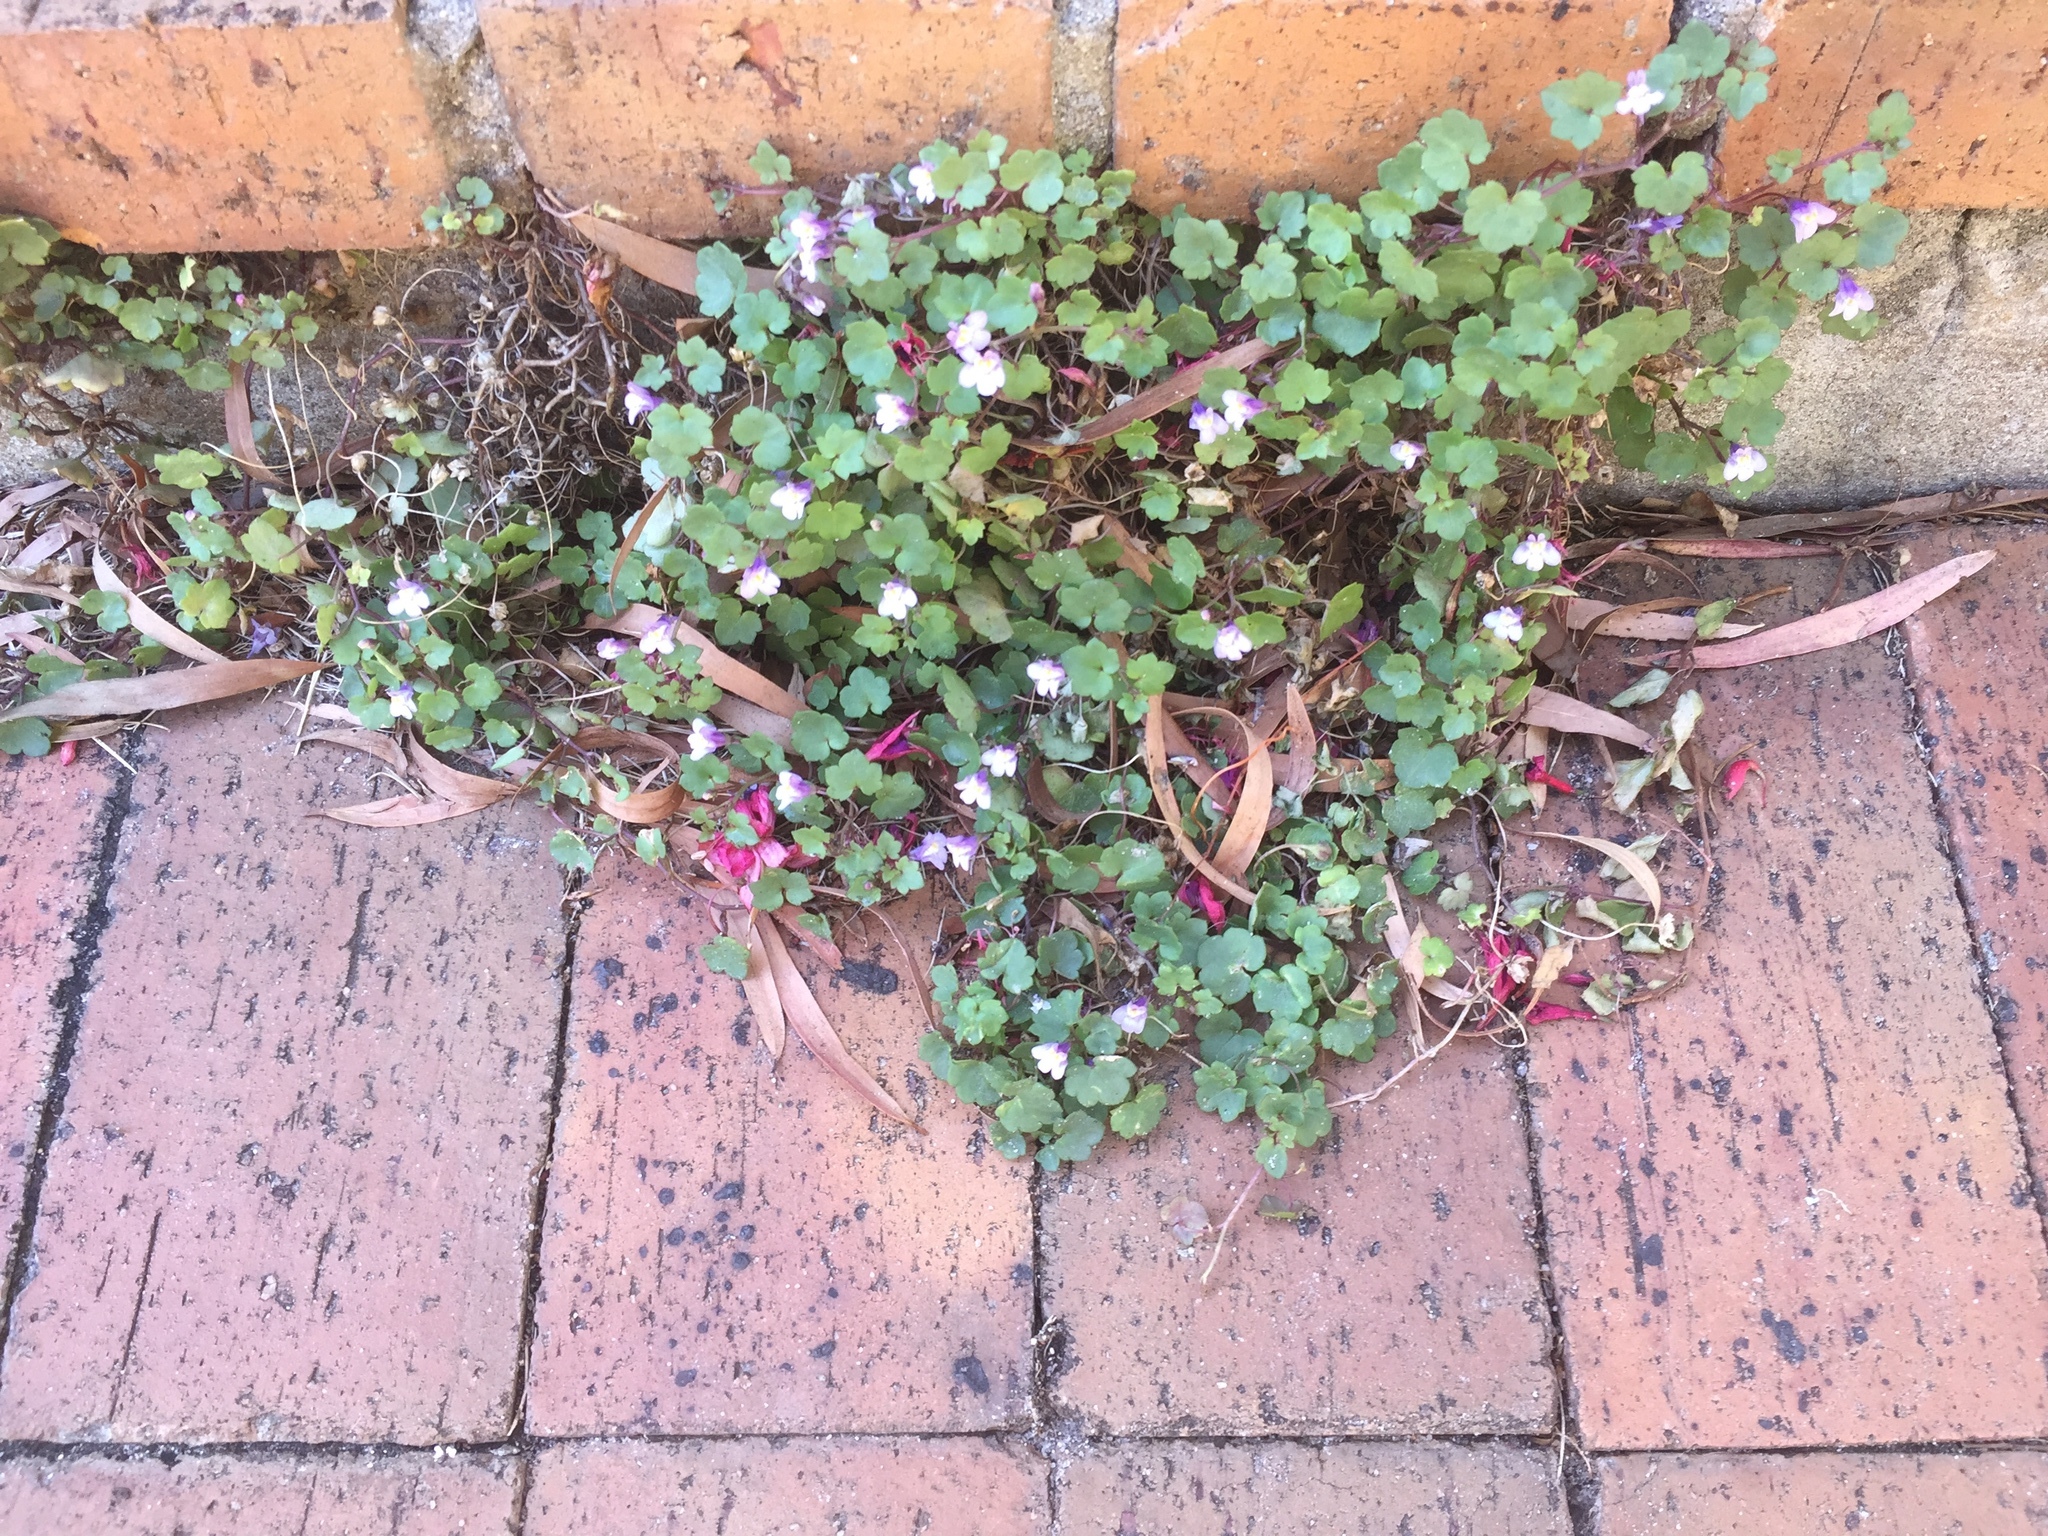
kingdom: Plantae
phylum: Tracheophyta
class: Magnoliopsida
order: Lamiales
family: Plantaginaceae
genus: Cymbalaria
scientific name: Cymbalaria muralis
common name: Ivy-leaved toadflax
